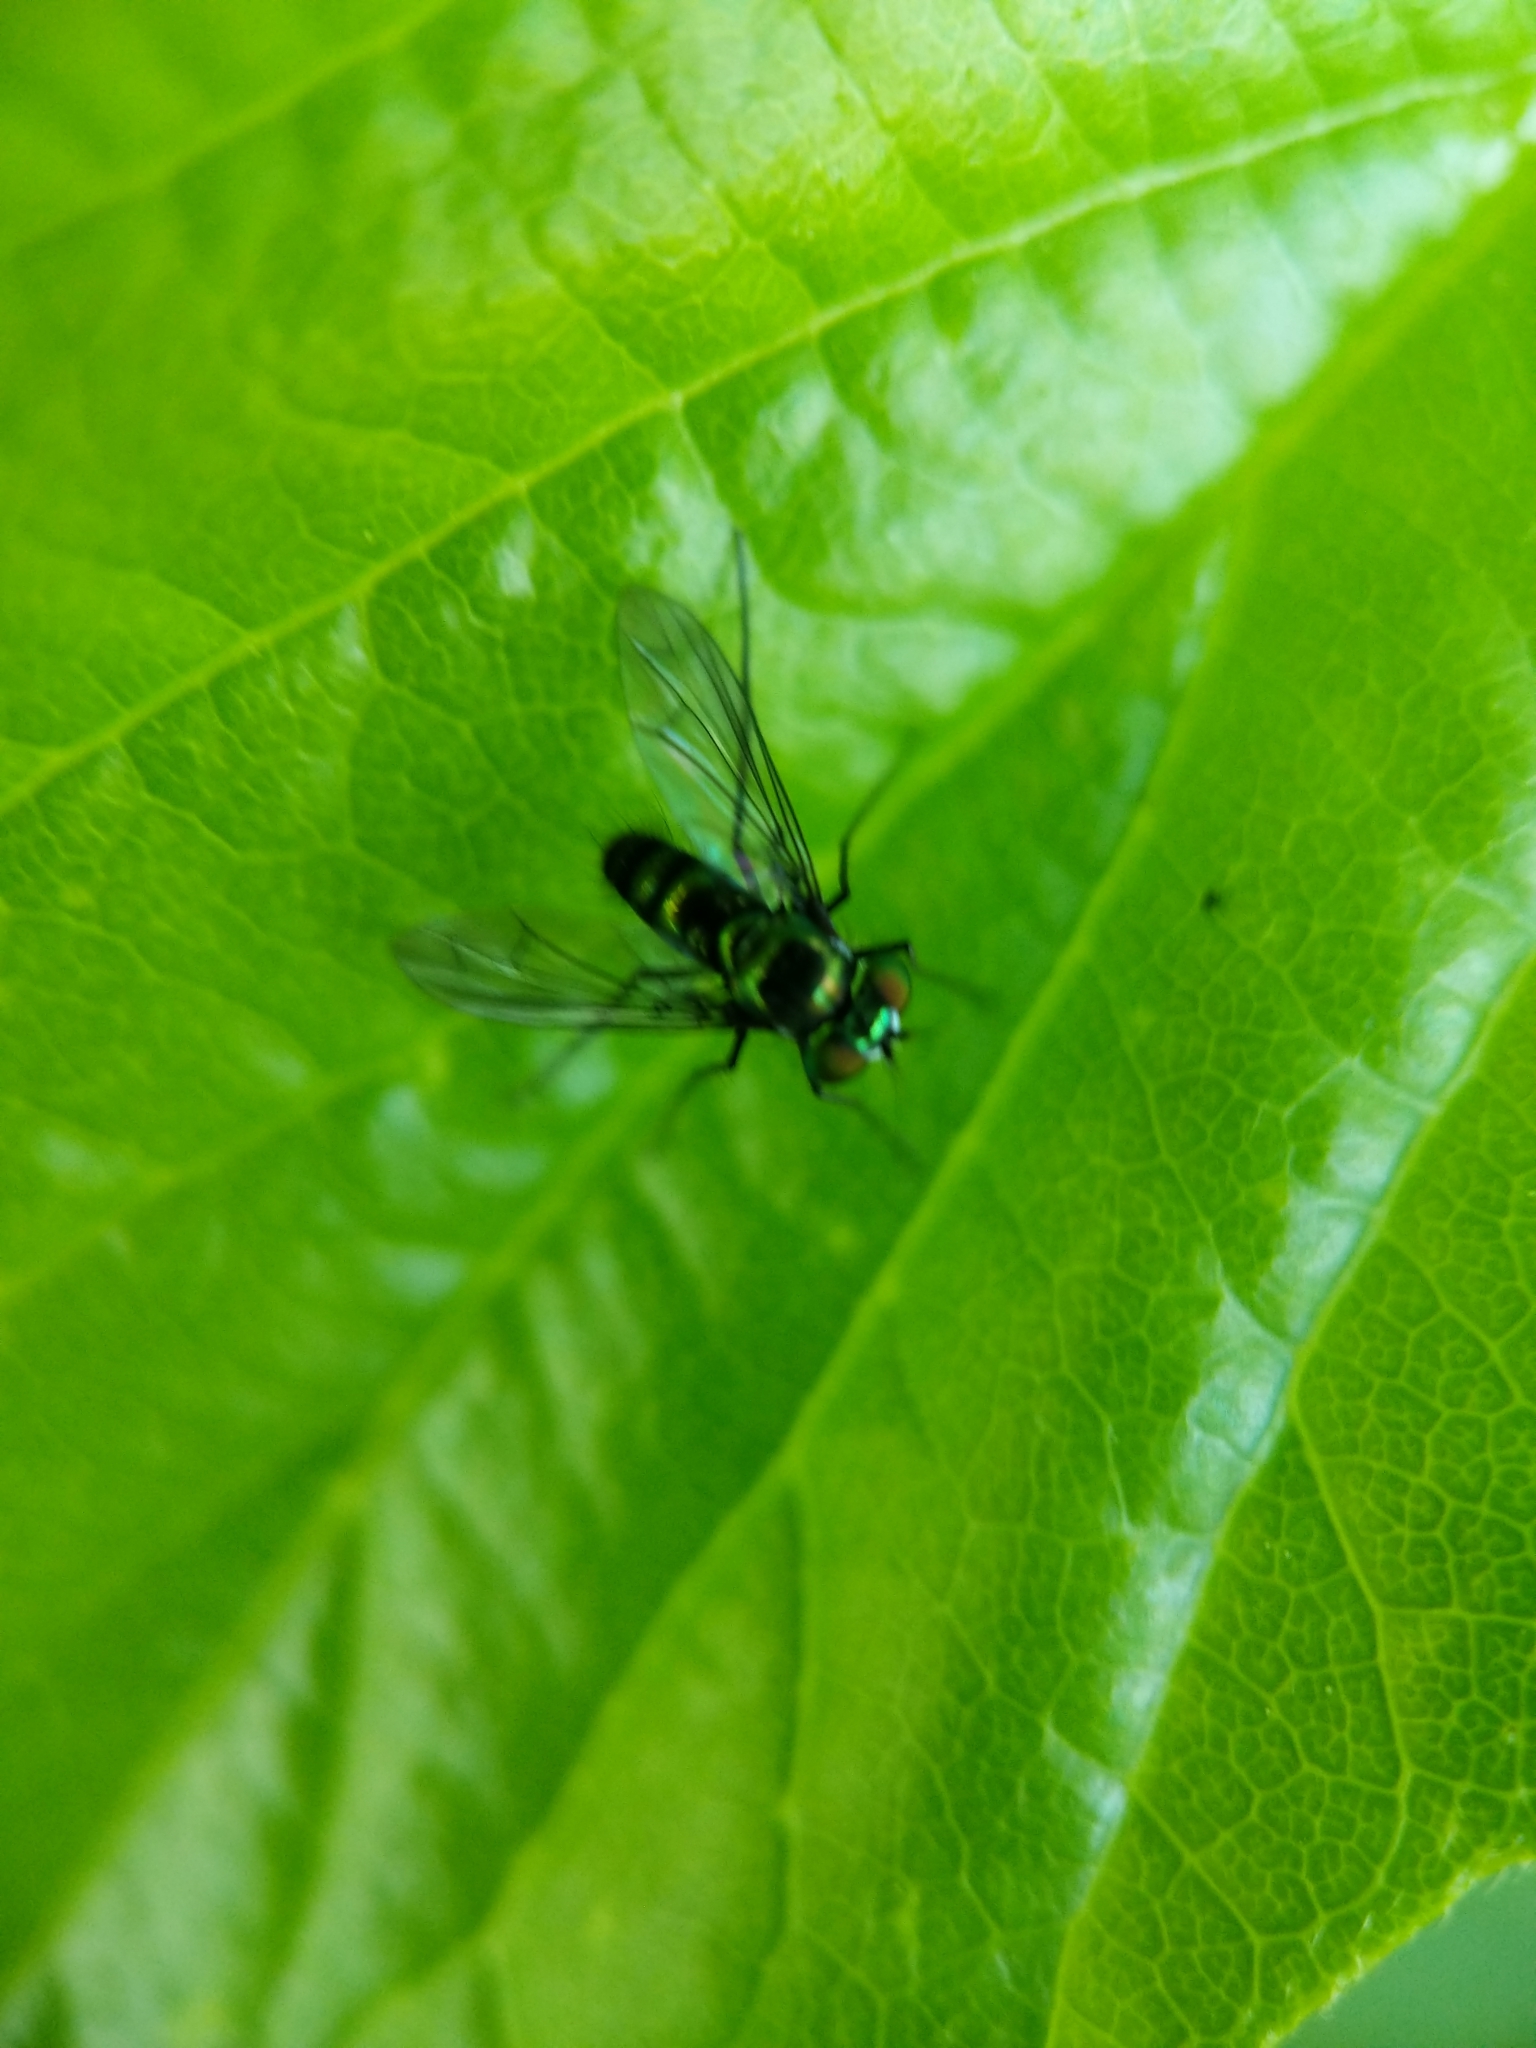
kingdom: Animalia
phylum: Arthropoda
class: Insecta
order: Diptera
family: Dolichopodidae
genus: Condylostylus
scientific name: Condylostylus patibulatus
